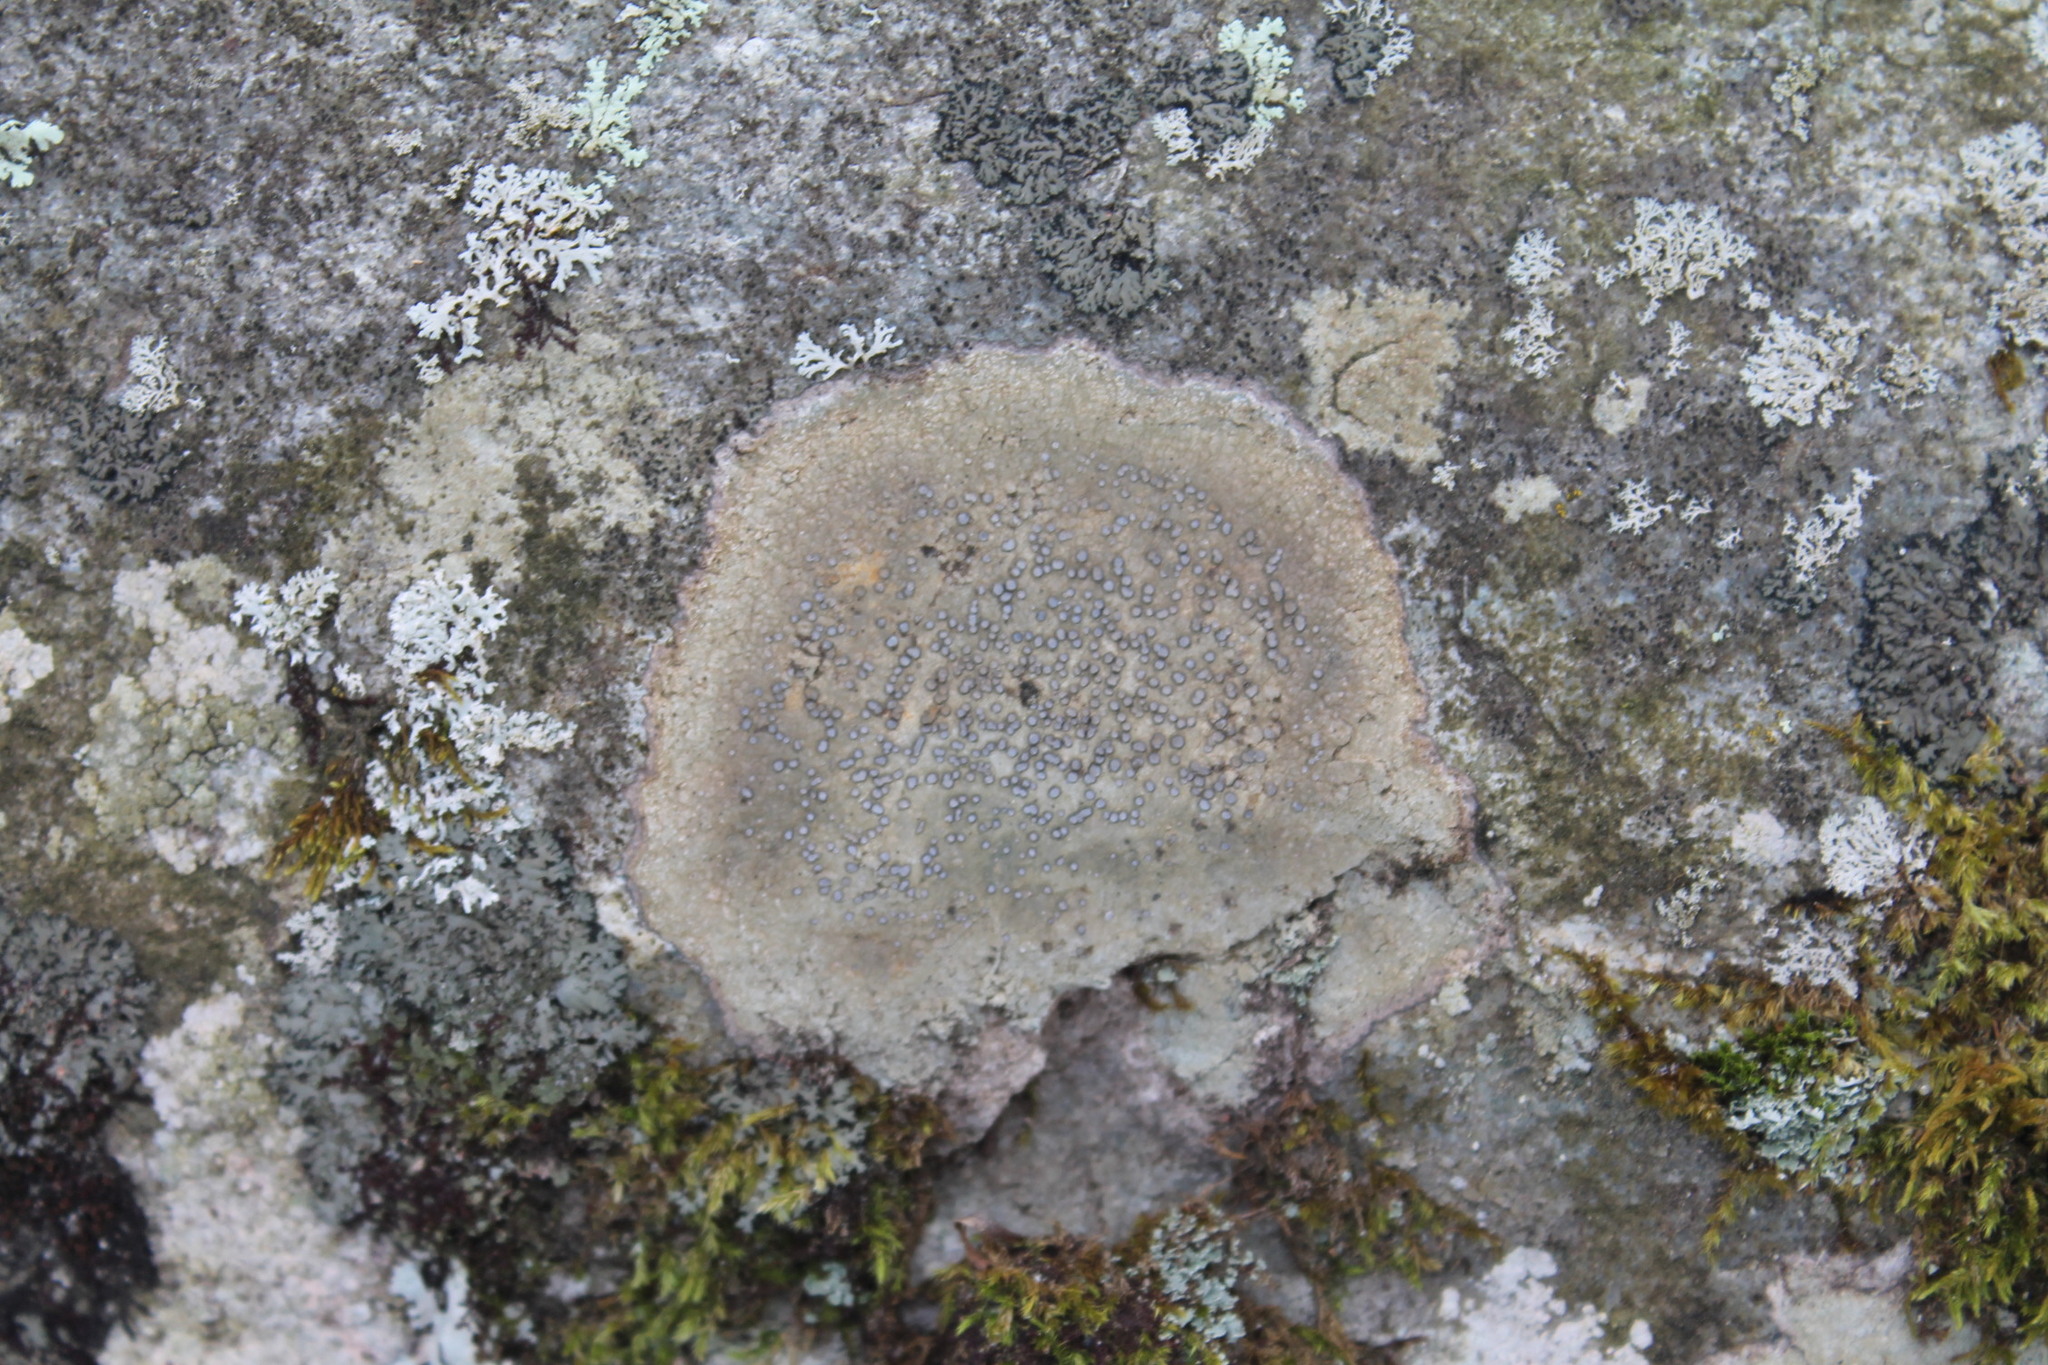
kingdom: Fungi
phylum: Ascomycota
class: Lecanoromycetes
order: Lecideales
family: Lecideaceae
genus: Porpidia
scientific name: Porpidia albocaerulescens
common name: Smokey-eyed boulder lichen
